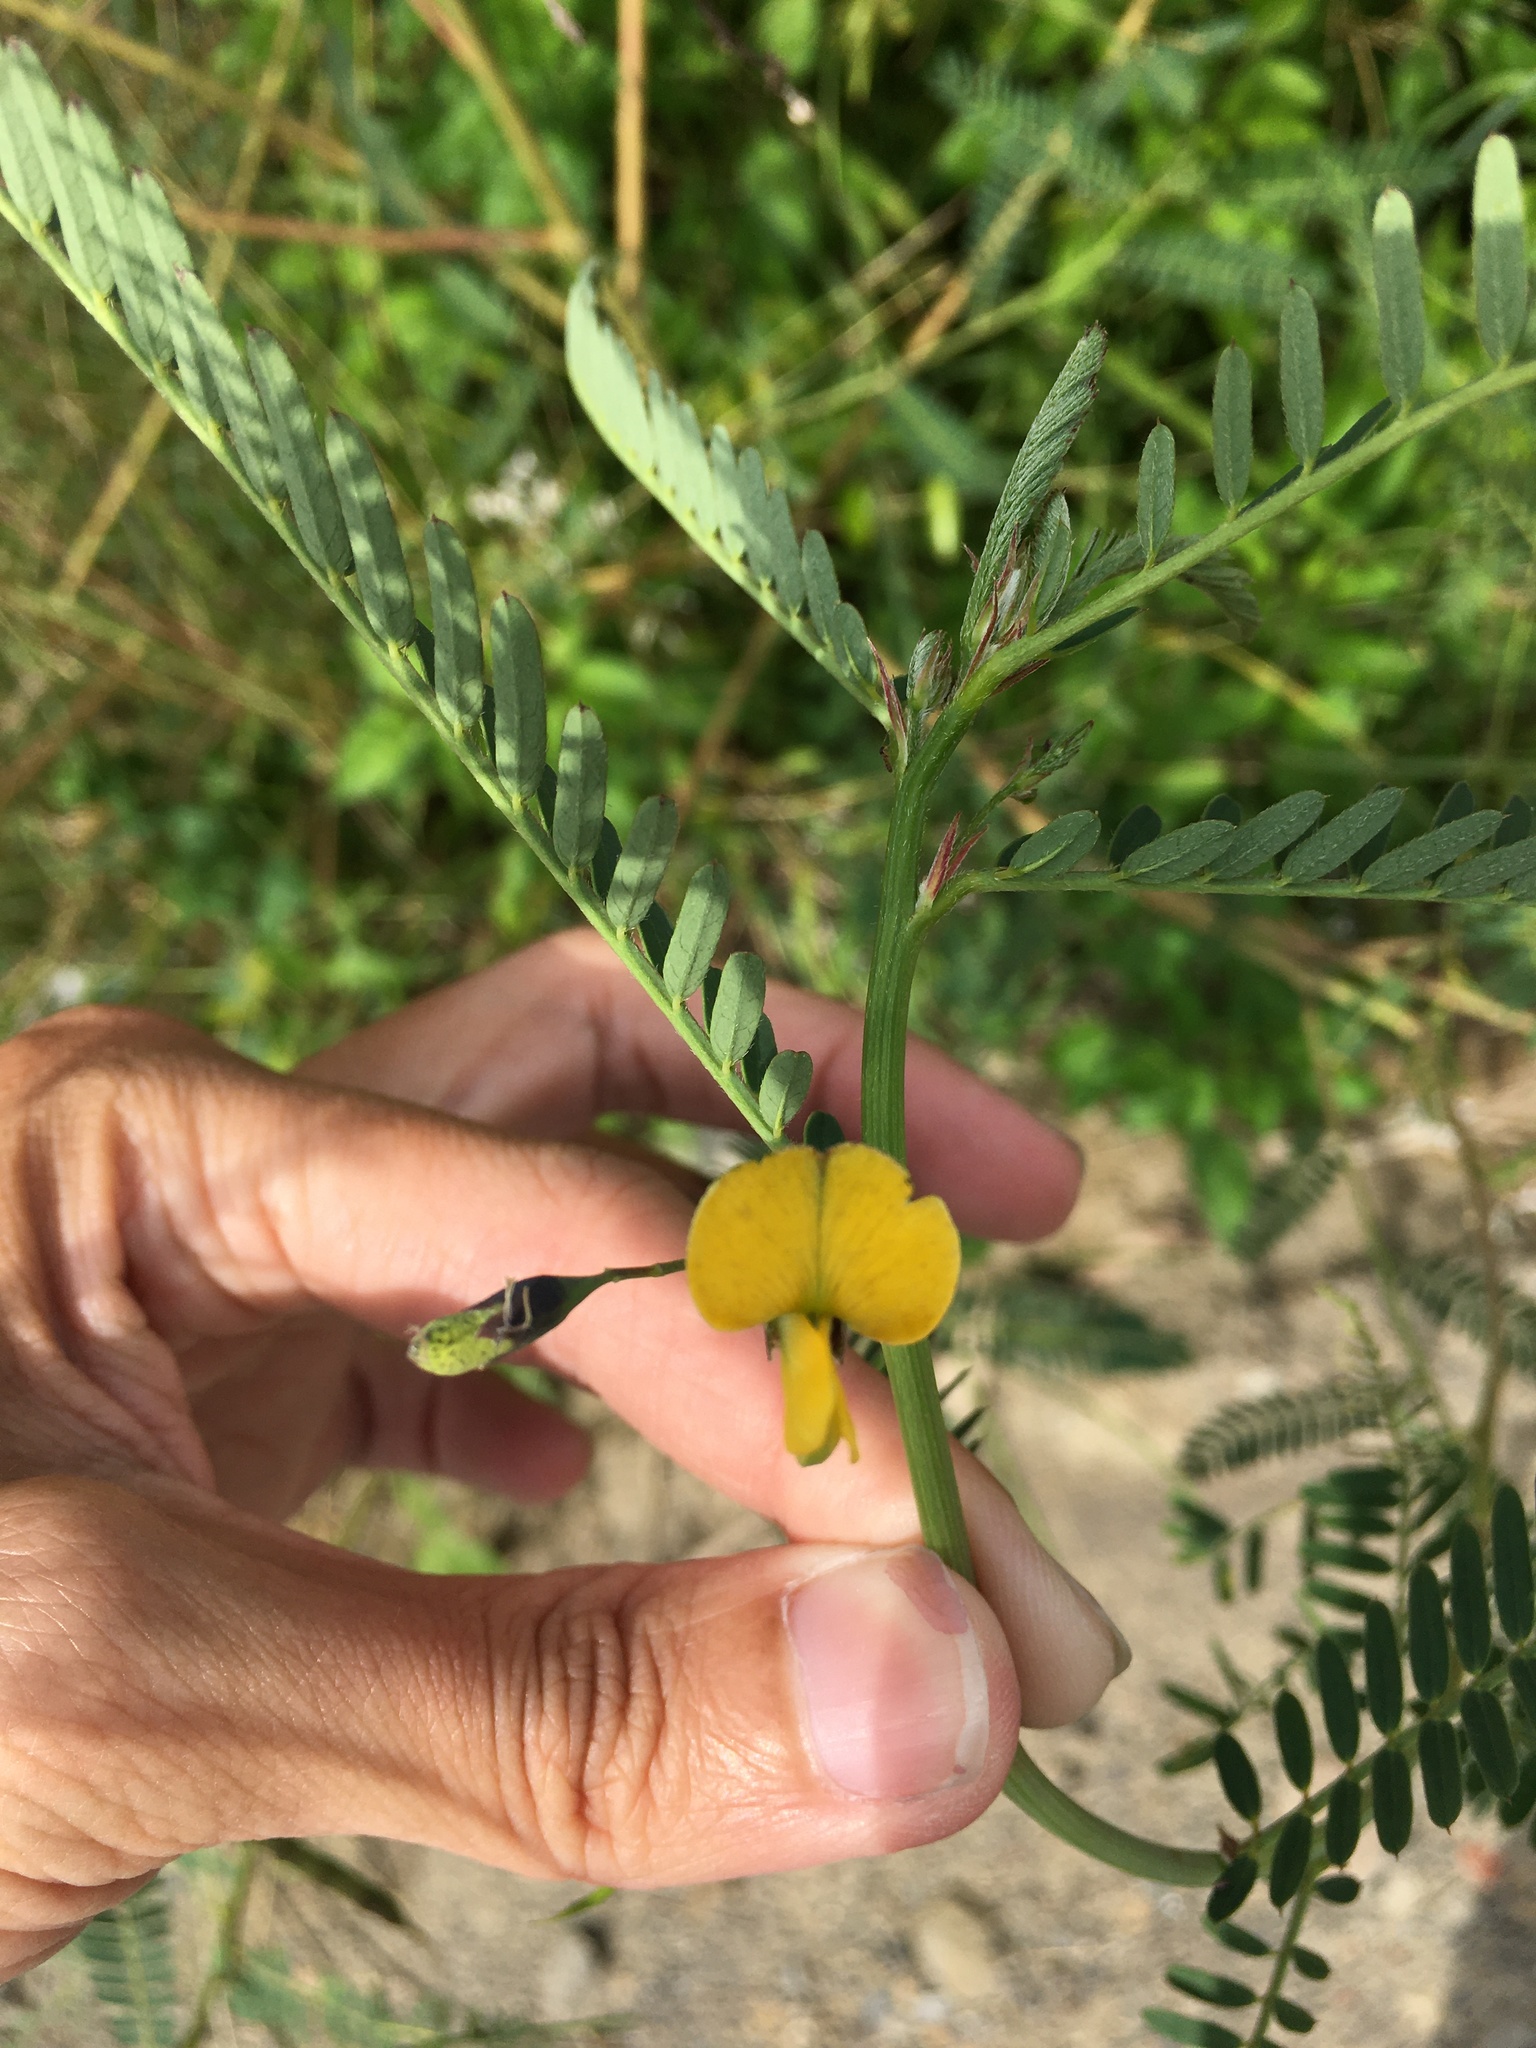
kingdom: Plantae
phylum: Tracheophyta
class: Magnoliopsida
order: Fabales
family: Fabaceae
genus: Sesbania
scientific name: Sesbania cannabina
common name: Canicha
